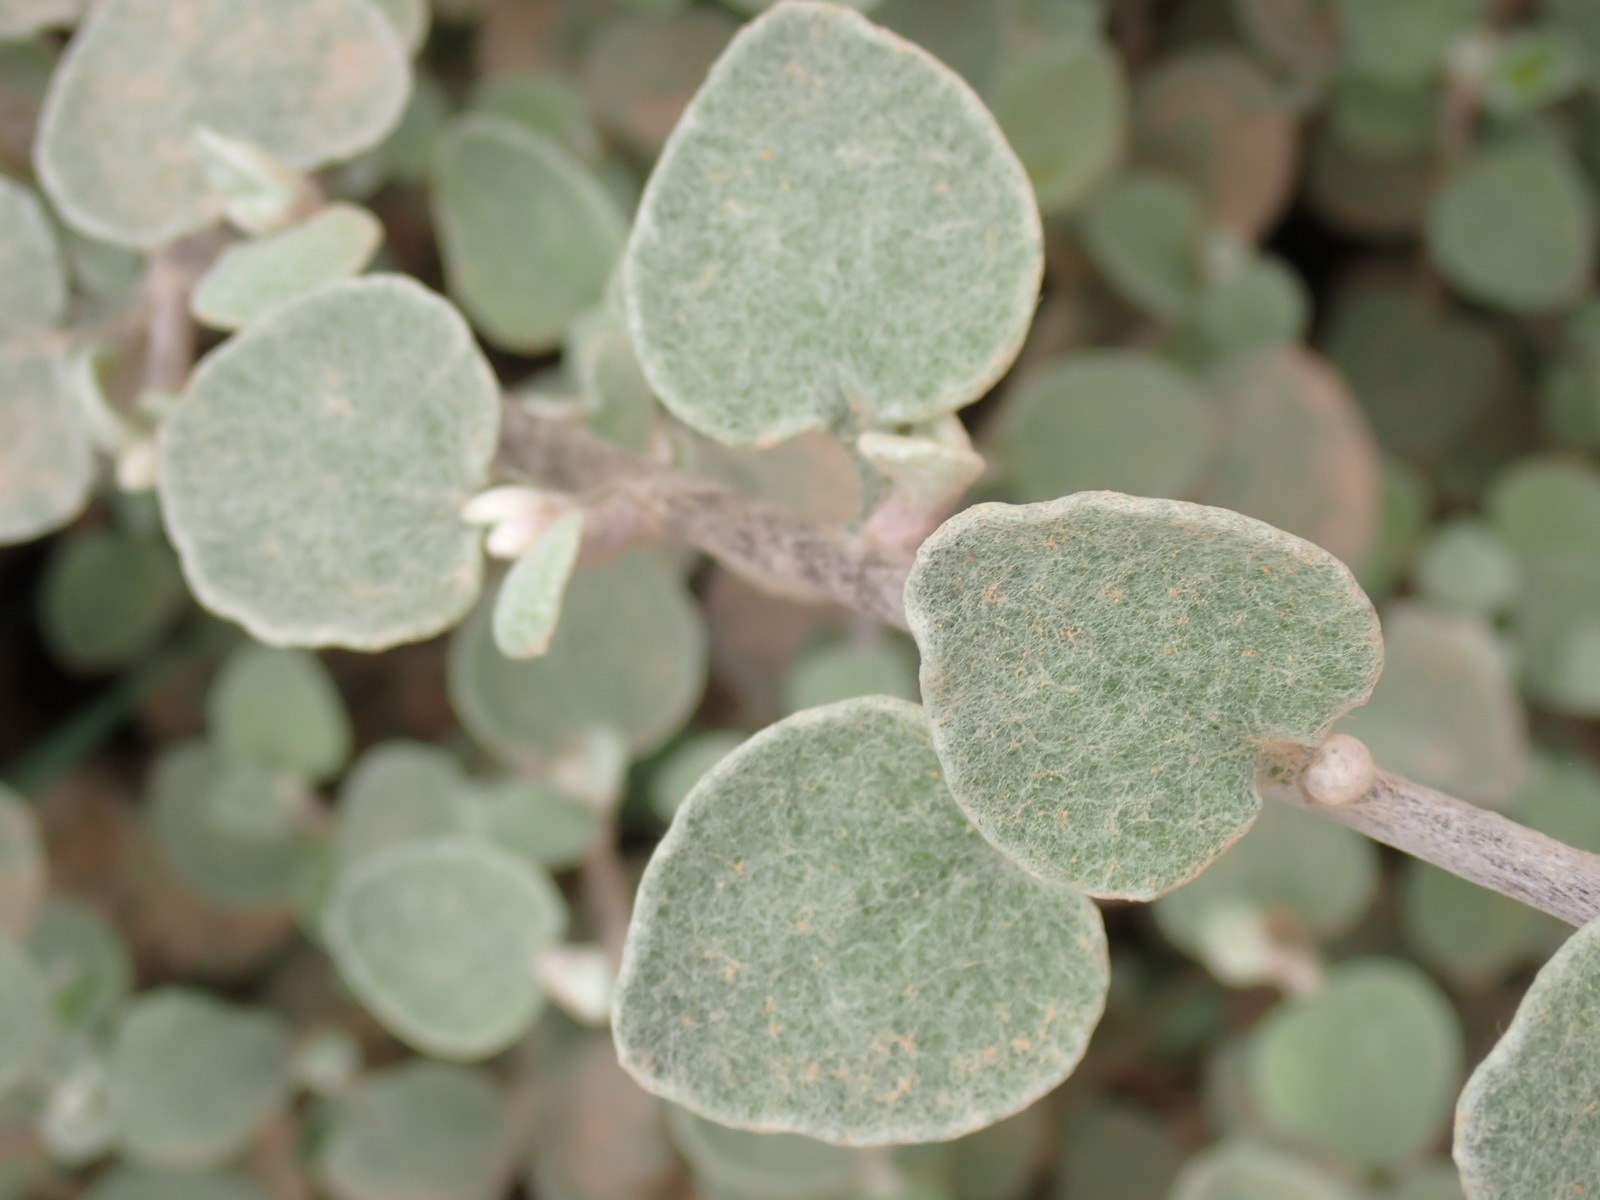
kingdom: Plantae
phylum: Tracheophyta
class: Magnoliopsida
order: Asterales
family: Asteraceae
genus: Helichrysum
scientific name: Helichrysum petiolare
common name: Licorice-plant
